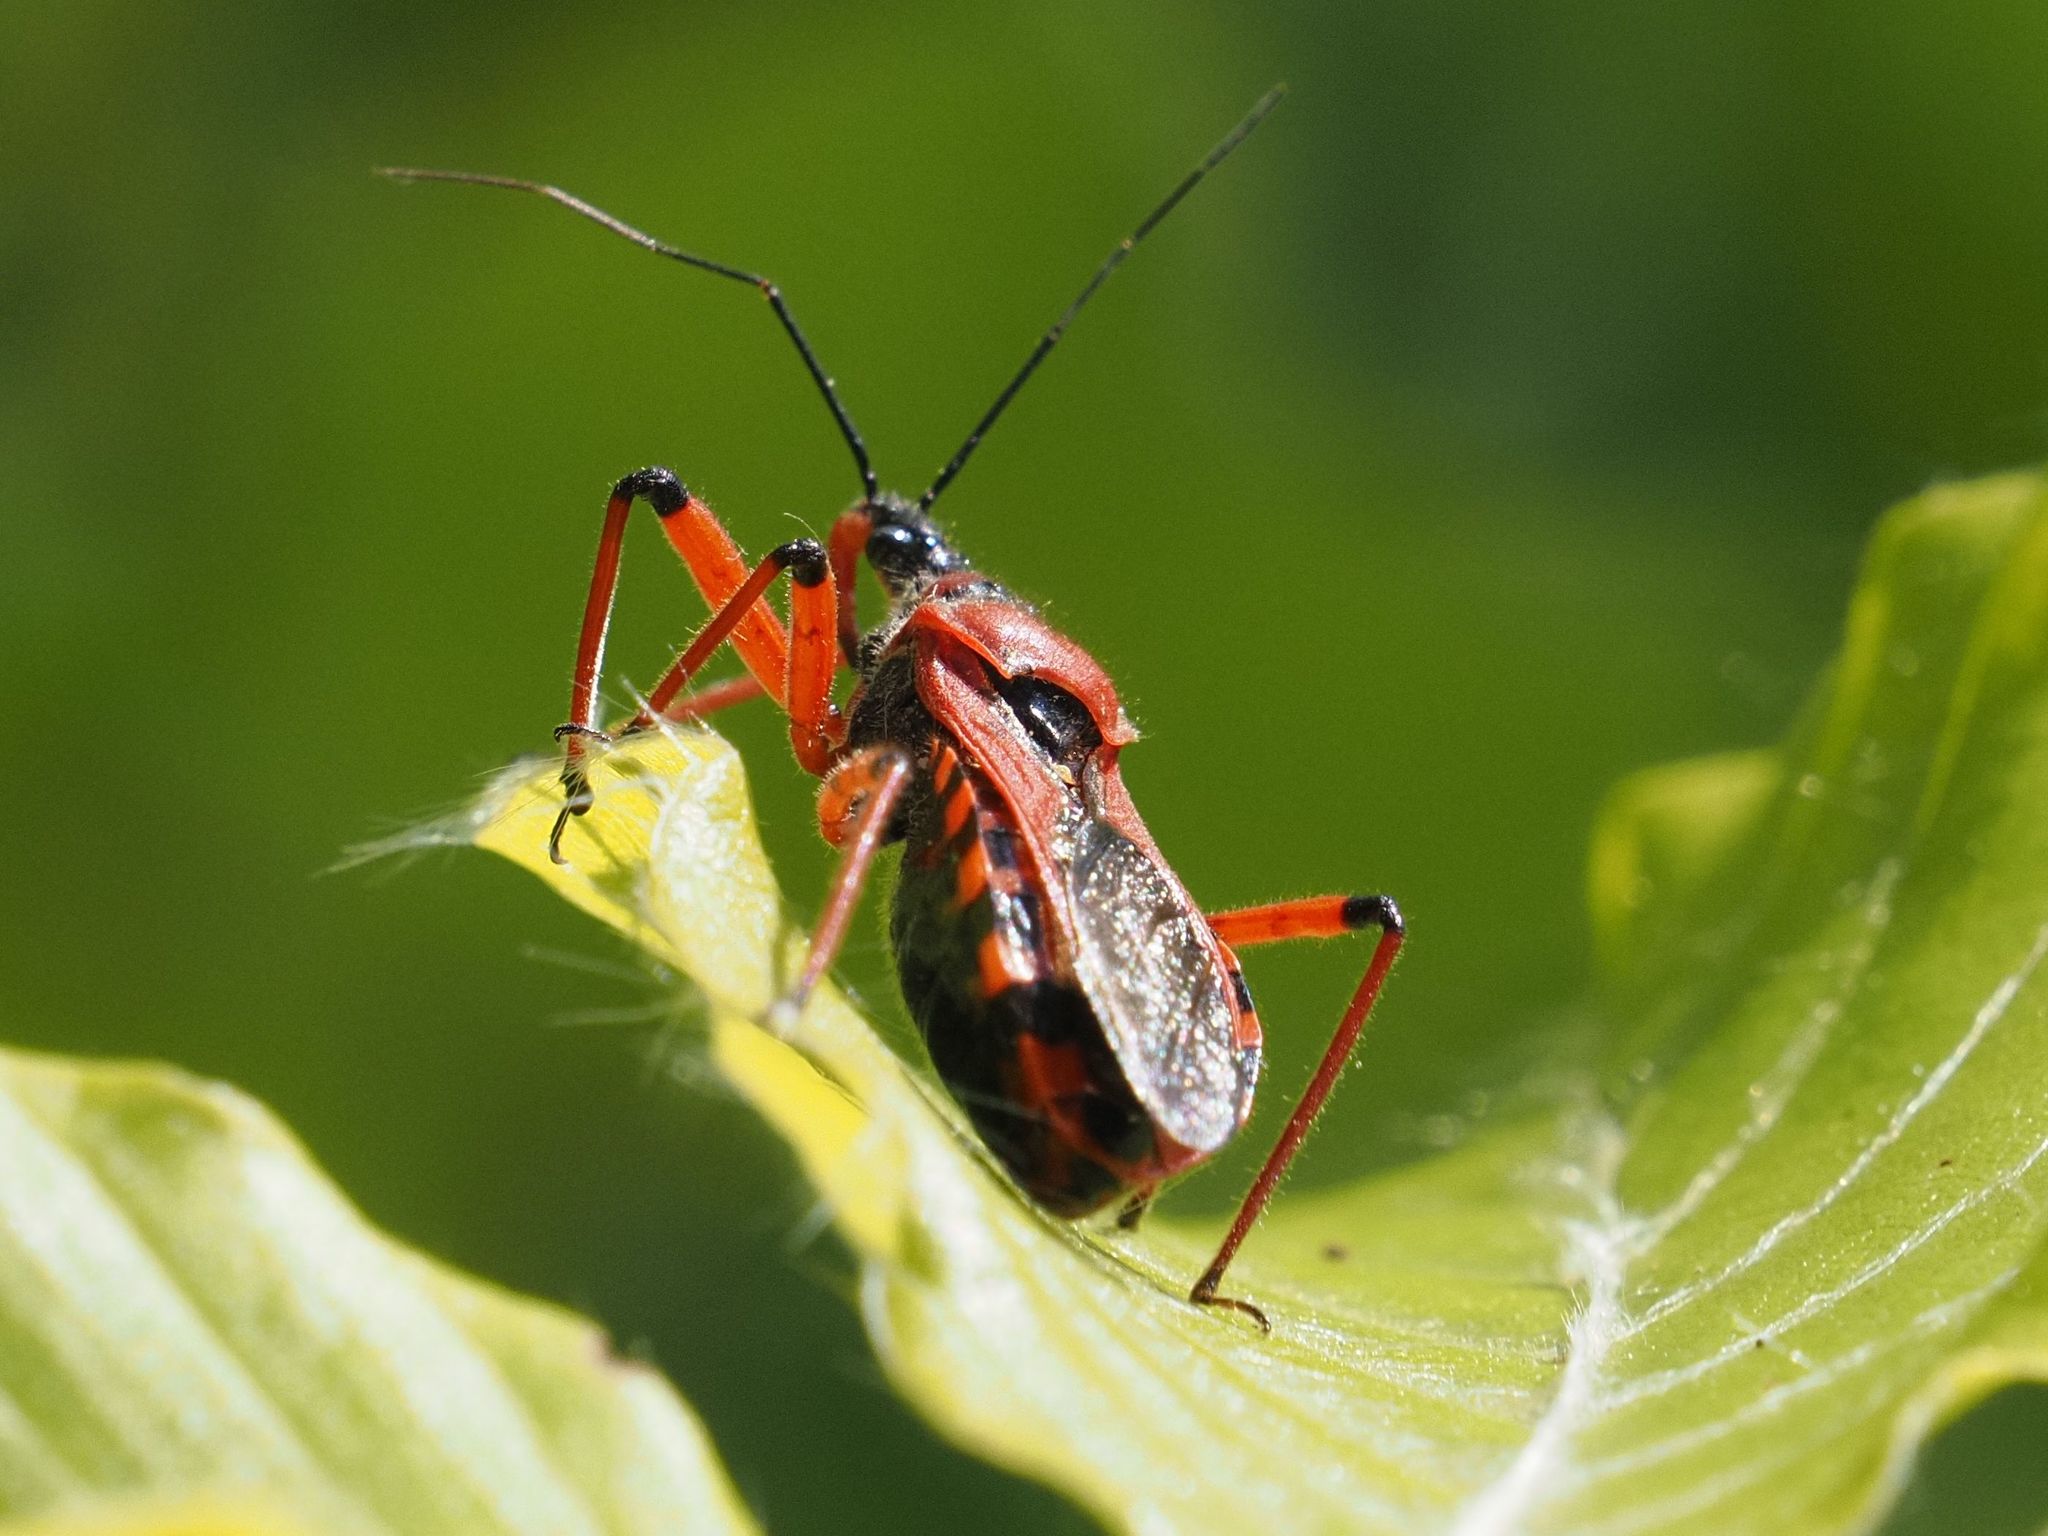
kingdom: Animalia
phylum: Arthropoda
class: Insecta
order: Hemiptera
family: Reduviidae
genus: Rhynocoris
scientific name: Rhynocoris iracundus
